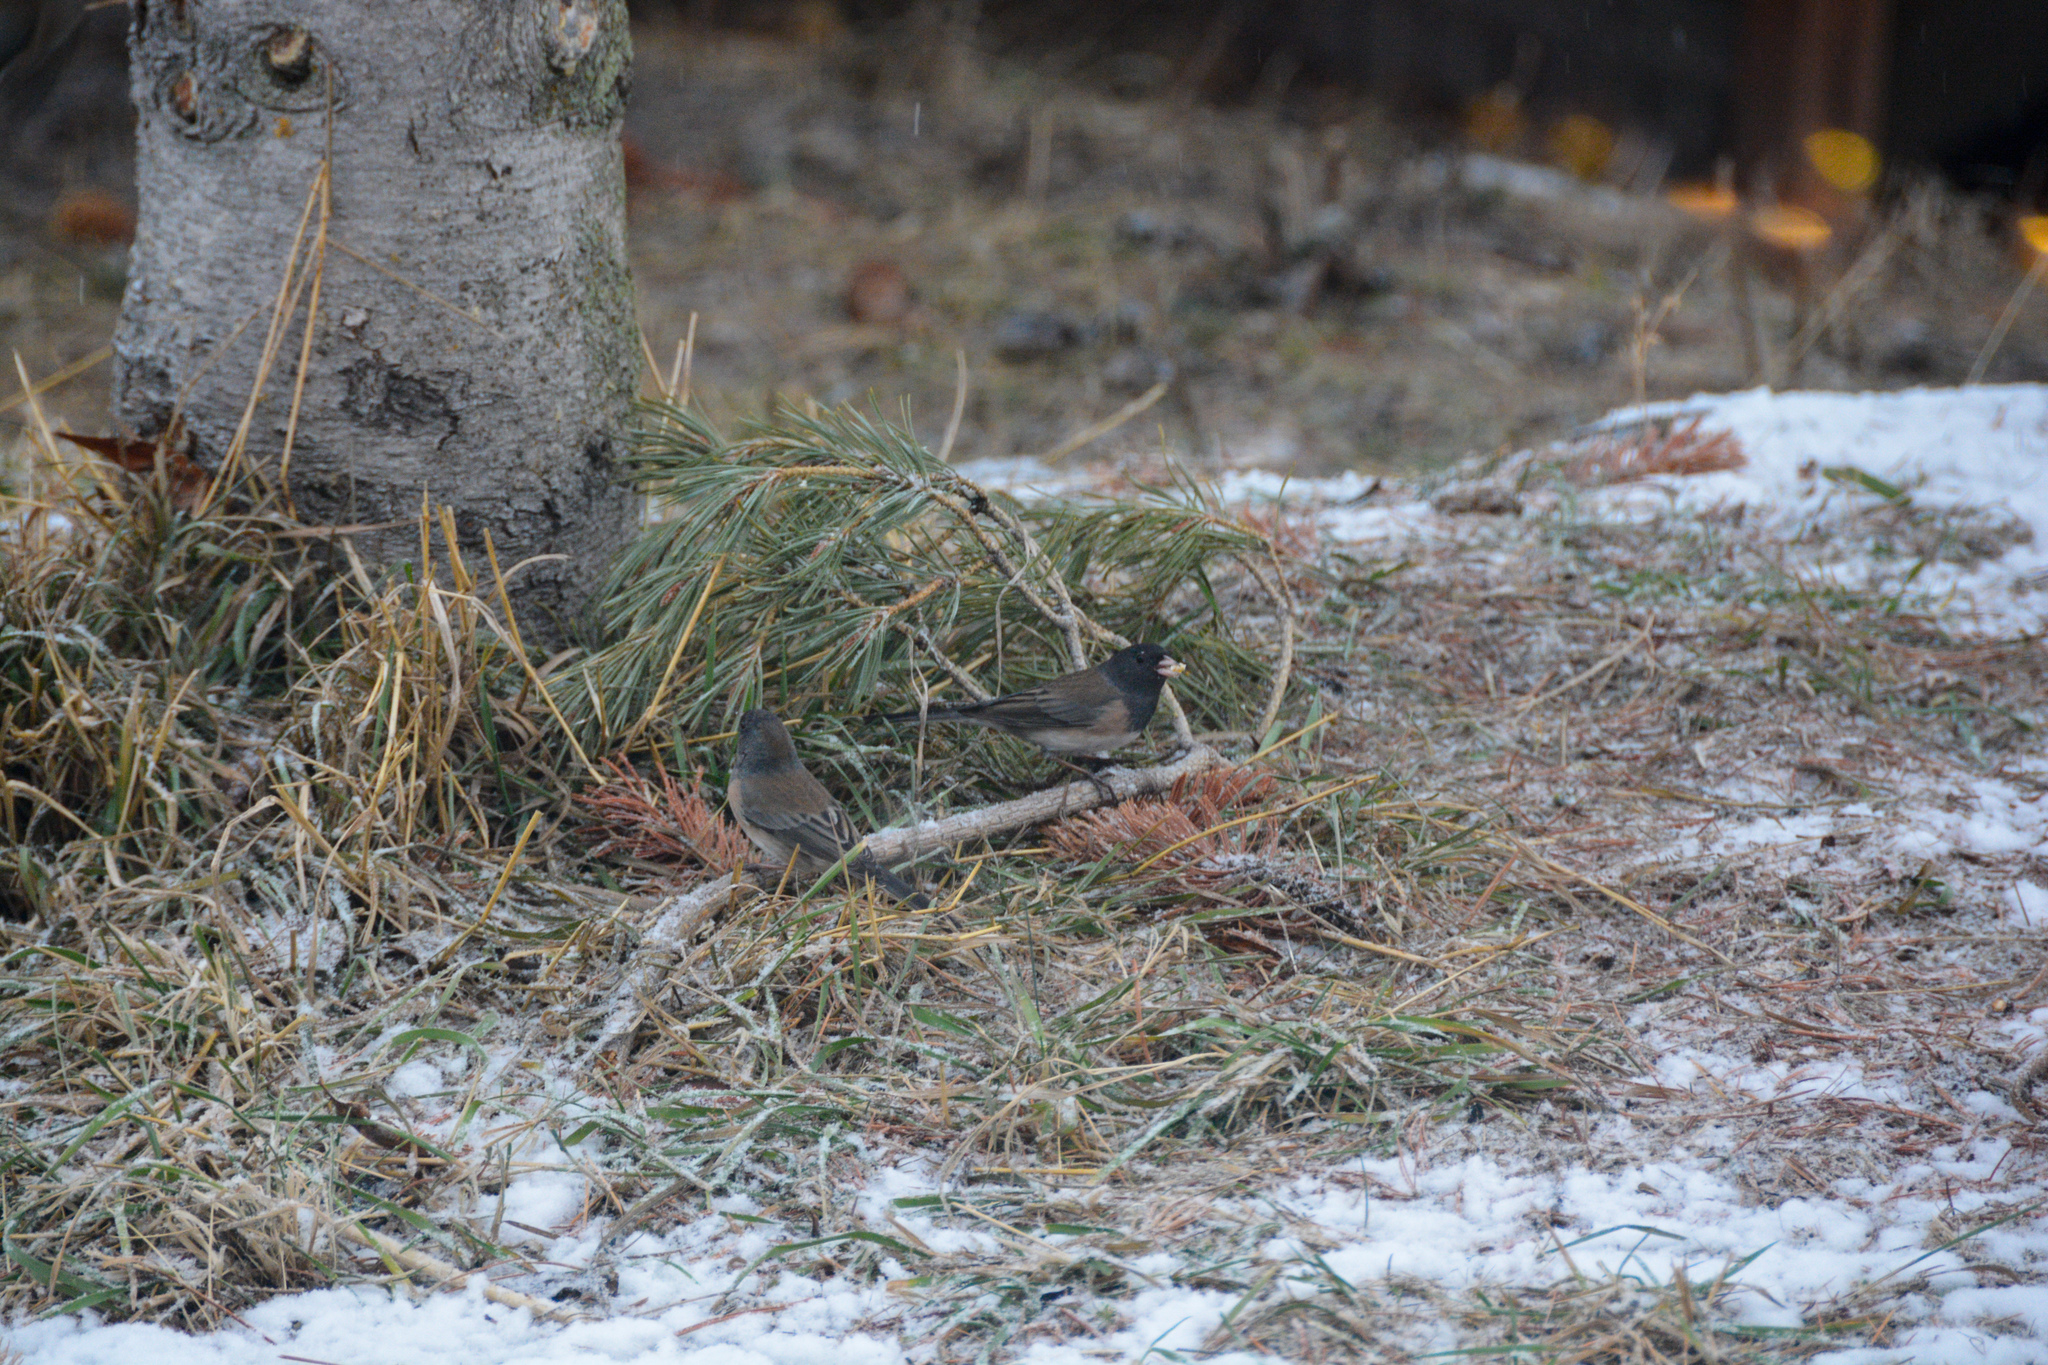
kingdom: Animalia
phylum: Chordata
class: Aves
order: Passeriformes
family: Passerellidae
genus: Junco
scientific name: Junco hyemalis
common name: Dark-eyed junco
